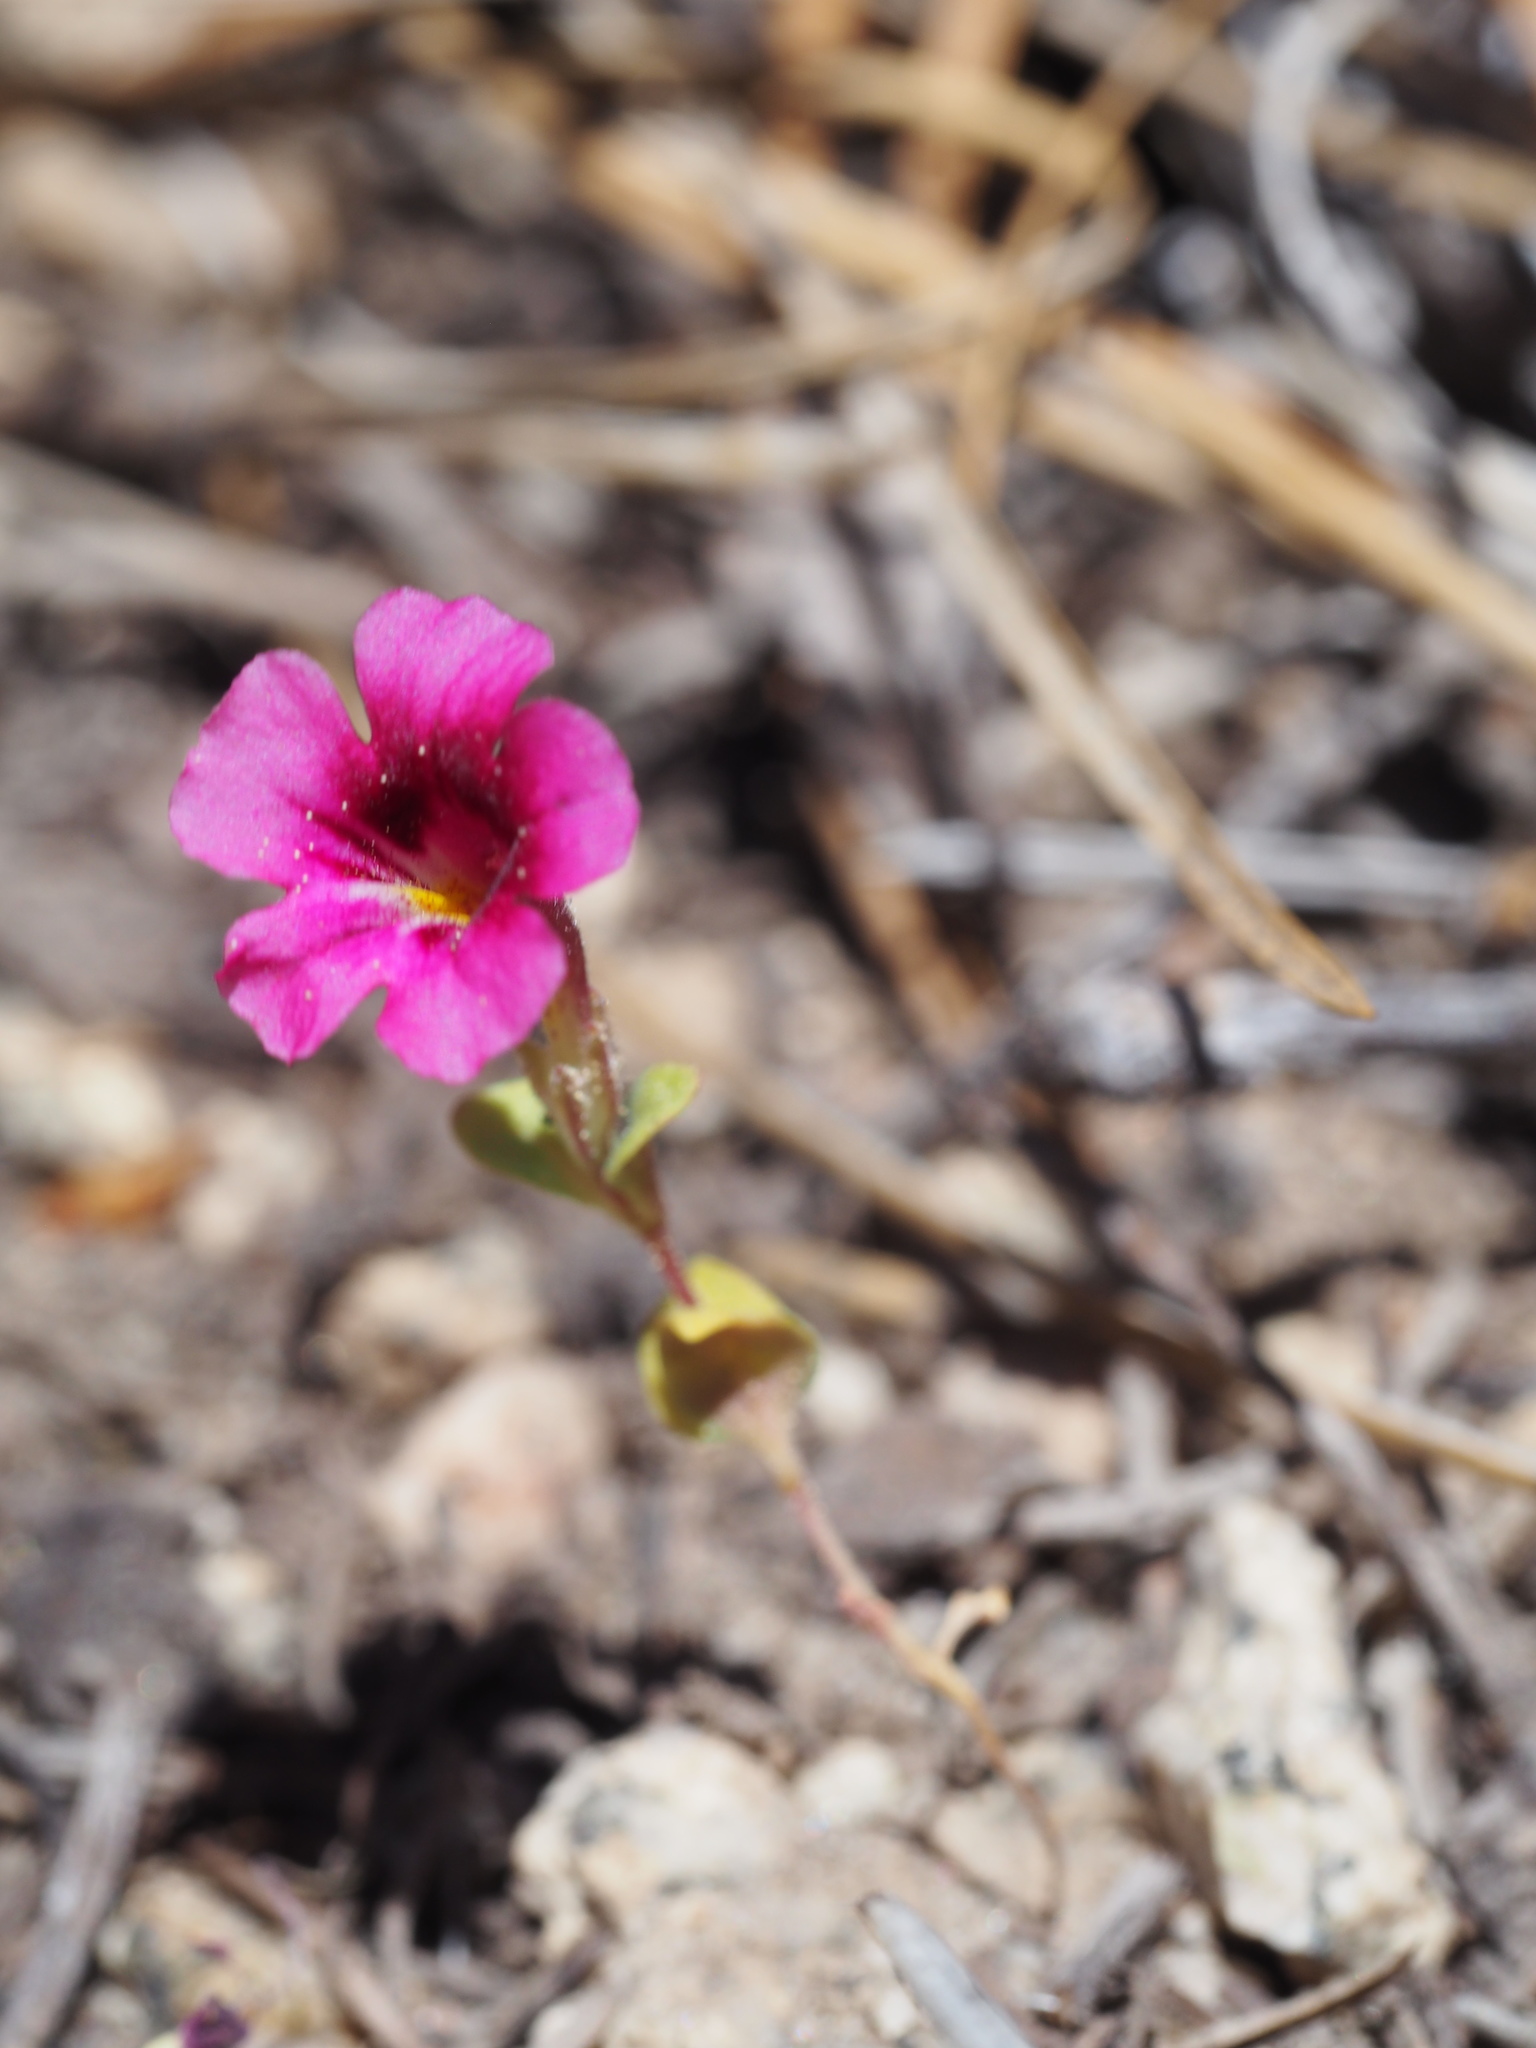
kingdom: Plantae
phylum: Tracheophyta
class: Magnoliopsida
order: Lamiales
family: Phrymaceae
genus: Diplacus
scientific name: Diplacus bicolor
